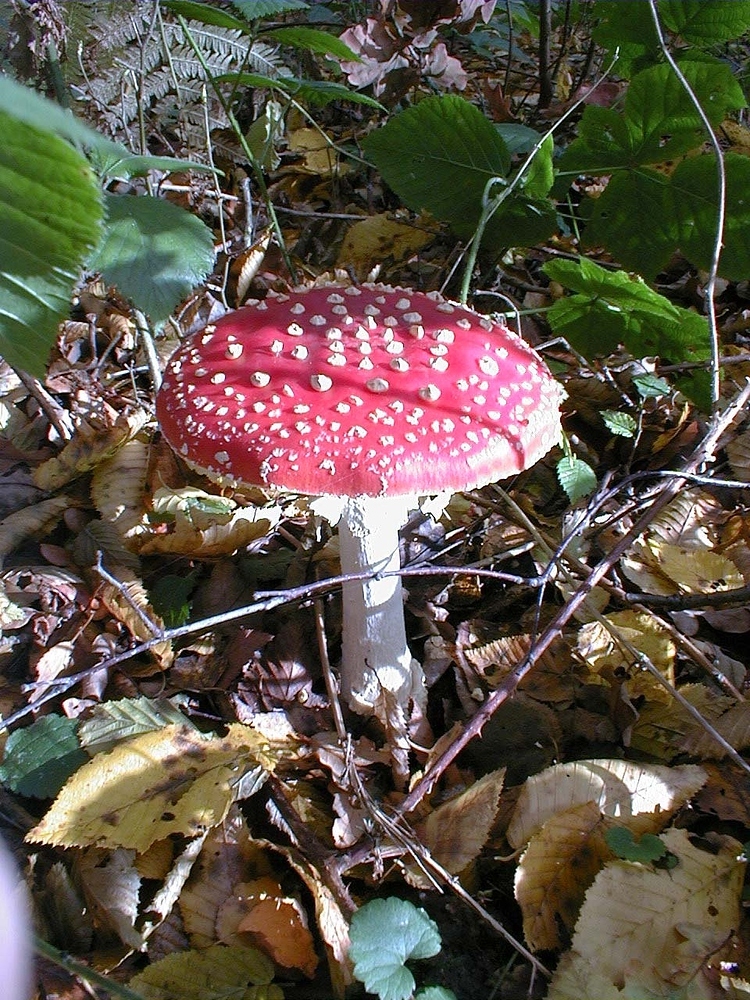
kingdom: Fungi
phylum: Basidiomycota
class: Agaricomycetes
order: Agaricales
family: Amanitaceae
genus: Amanita
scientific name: Amanita muscaria
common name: Fly agaric
